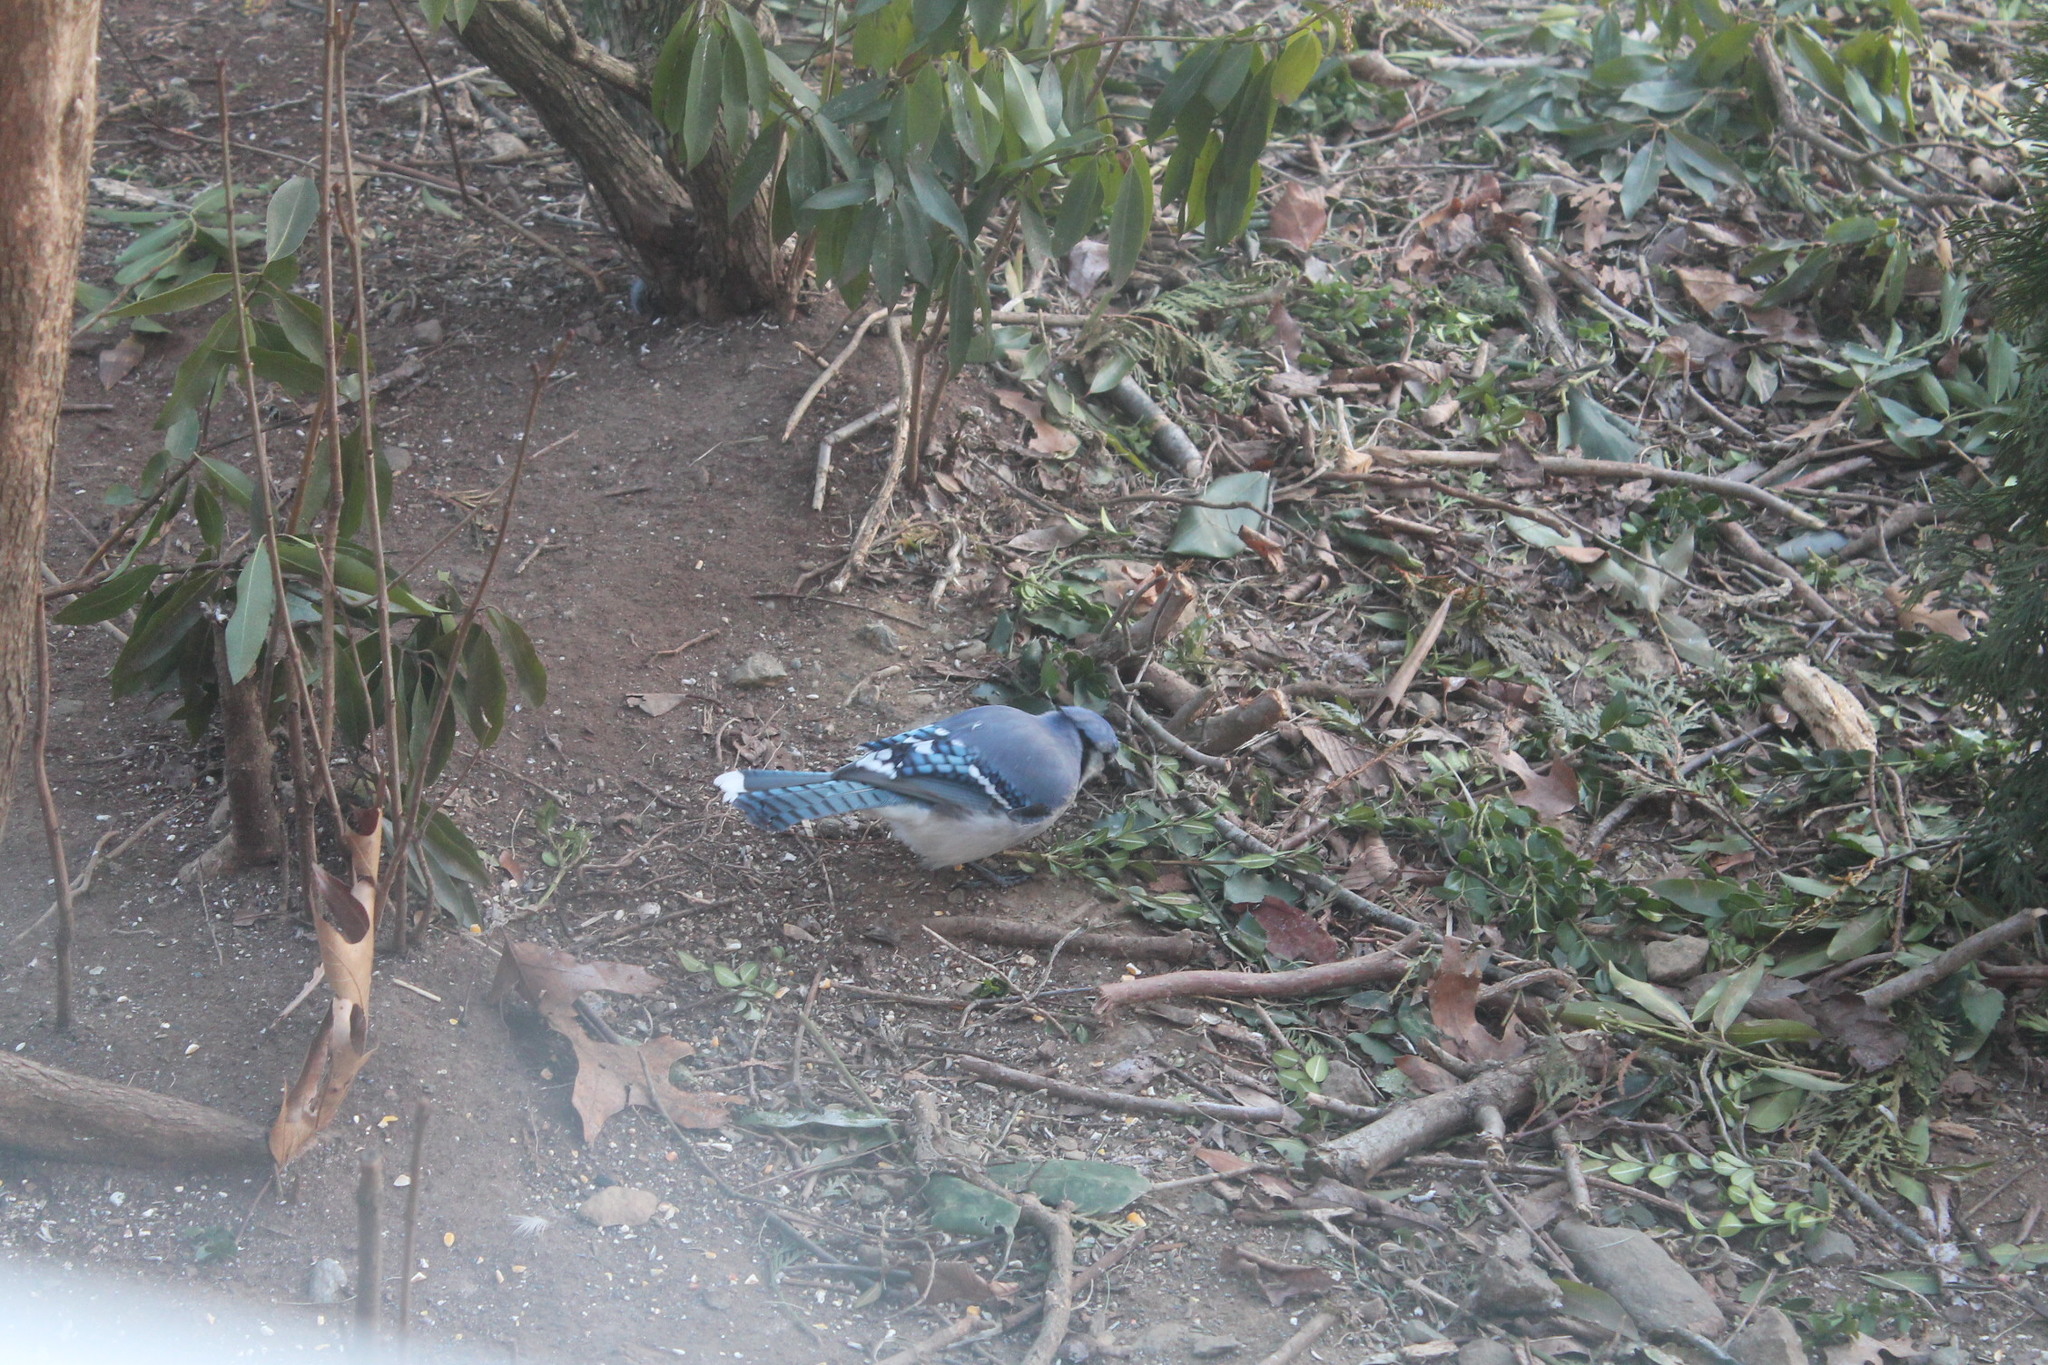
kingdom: Animalia
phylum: Chordata
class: Aves
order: Passeriformes
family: Corvidae
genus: Cyanocitta
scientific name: Cyanocitta cristata
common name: Blue jay
